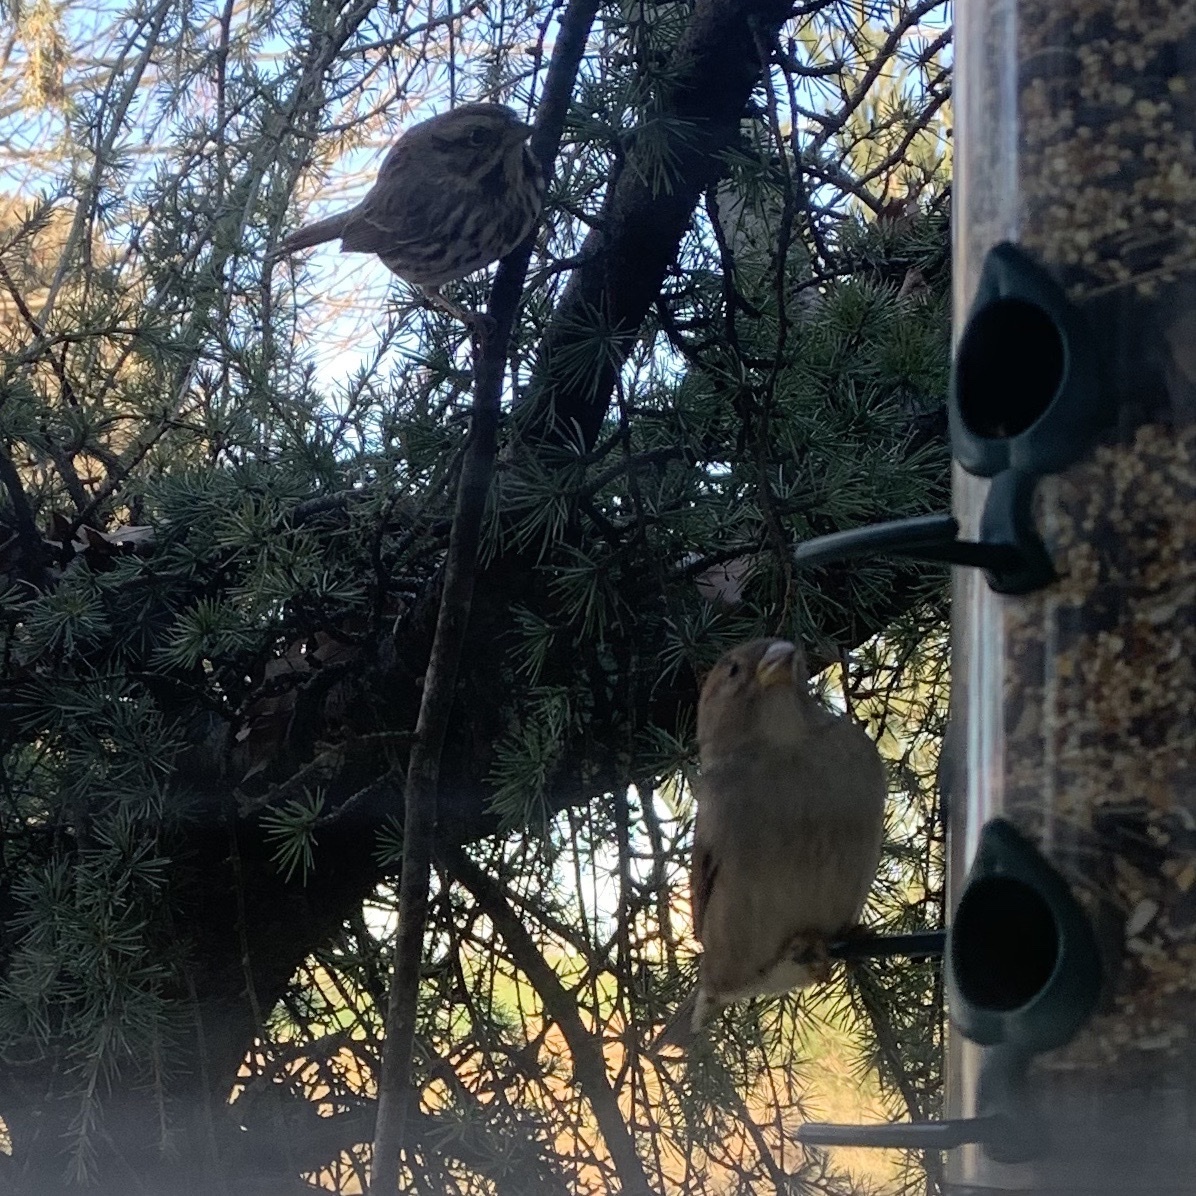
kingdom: Animalia
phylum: Chordata
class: Aves
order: Passeriformes
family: Passerellidae
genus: Melospiza
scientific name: Melospiza melodia
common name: Song sparrow
